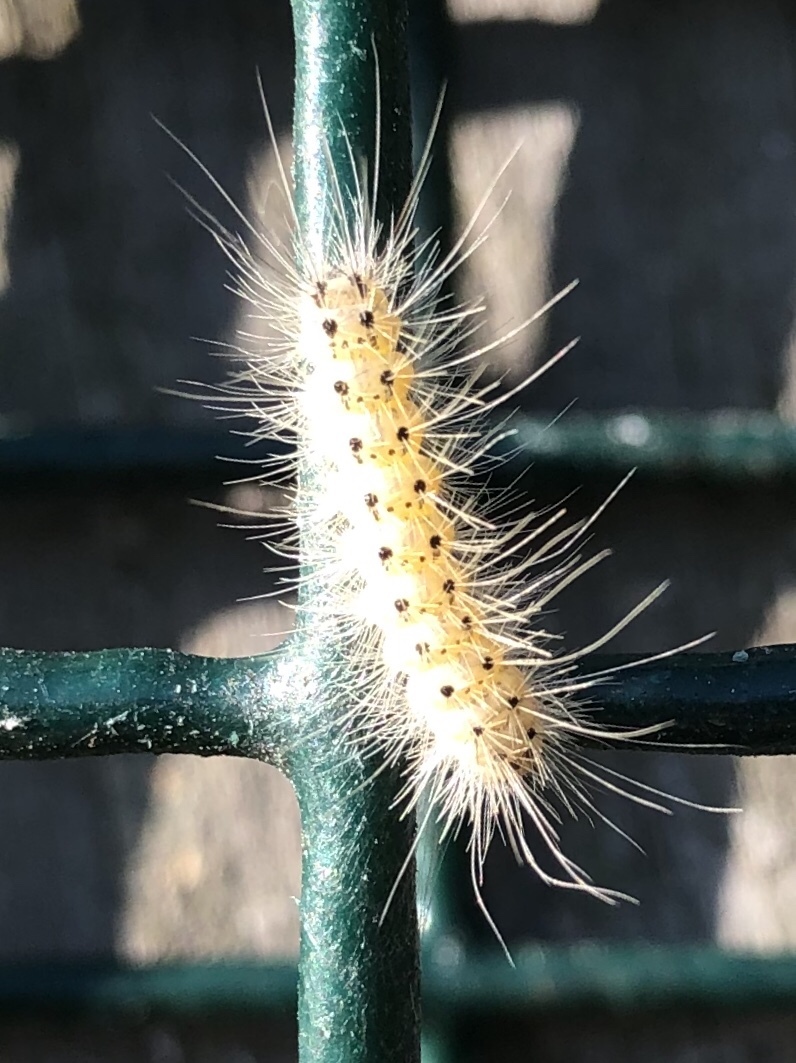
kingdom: Animalia
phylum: Arthropoda
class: Insecta
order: Lepidoptera
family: Erebidae
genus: Hyphantria
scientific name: Hyphantria cunea
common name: American white moth
